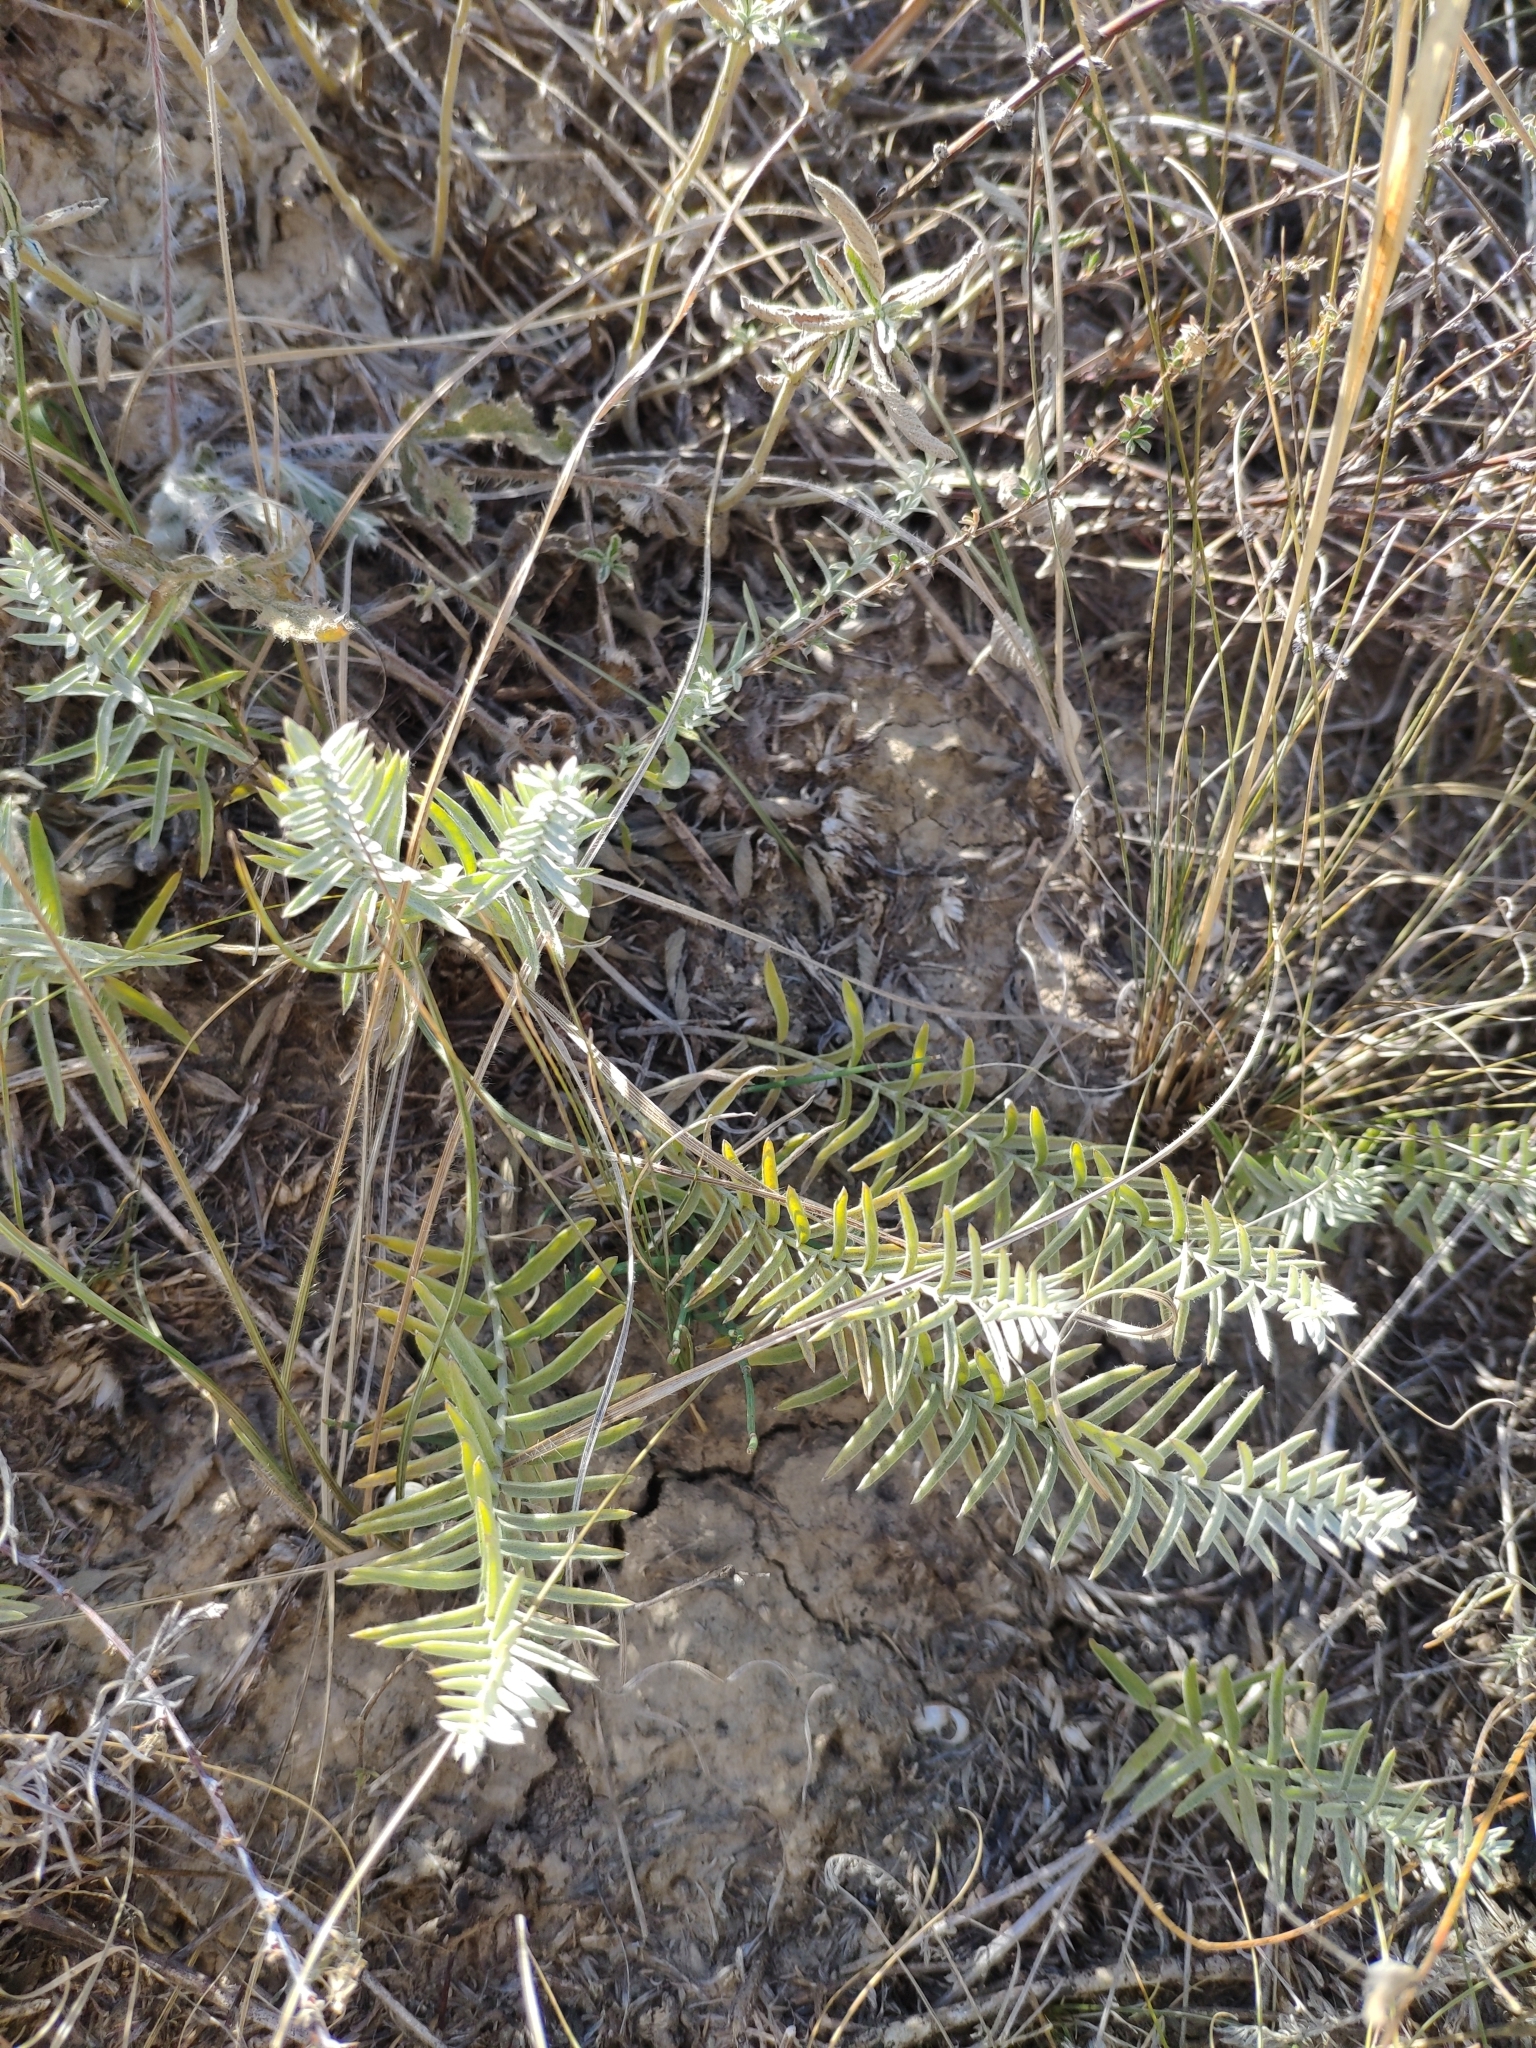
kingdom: Plantae
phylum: Tracheophyta
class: Magnoliopsida
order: Lamiales
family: Orobanchaceae
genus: Cymbaria
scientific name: Cymbaria borysthenica
